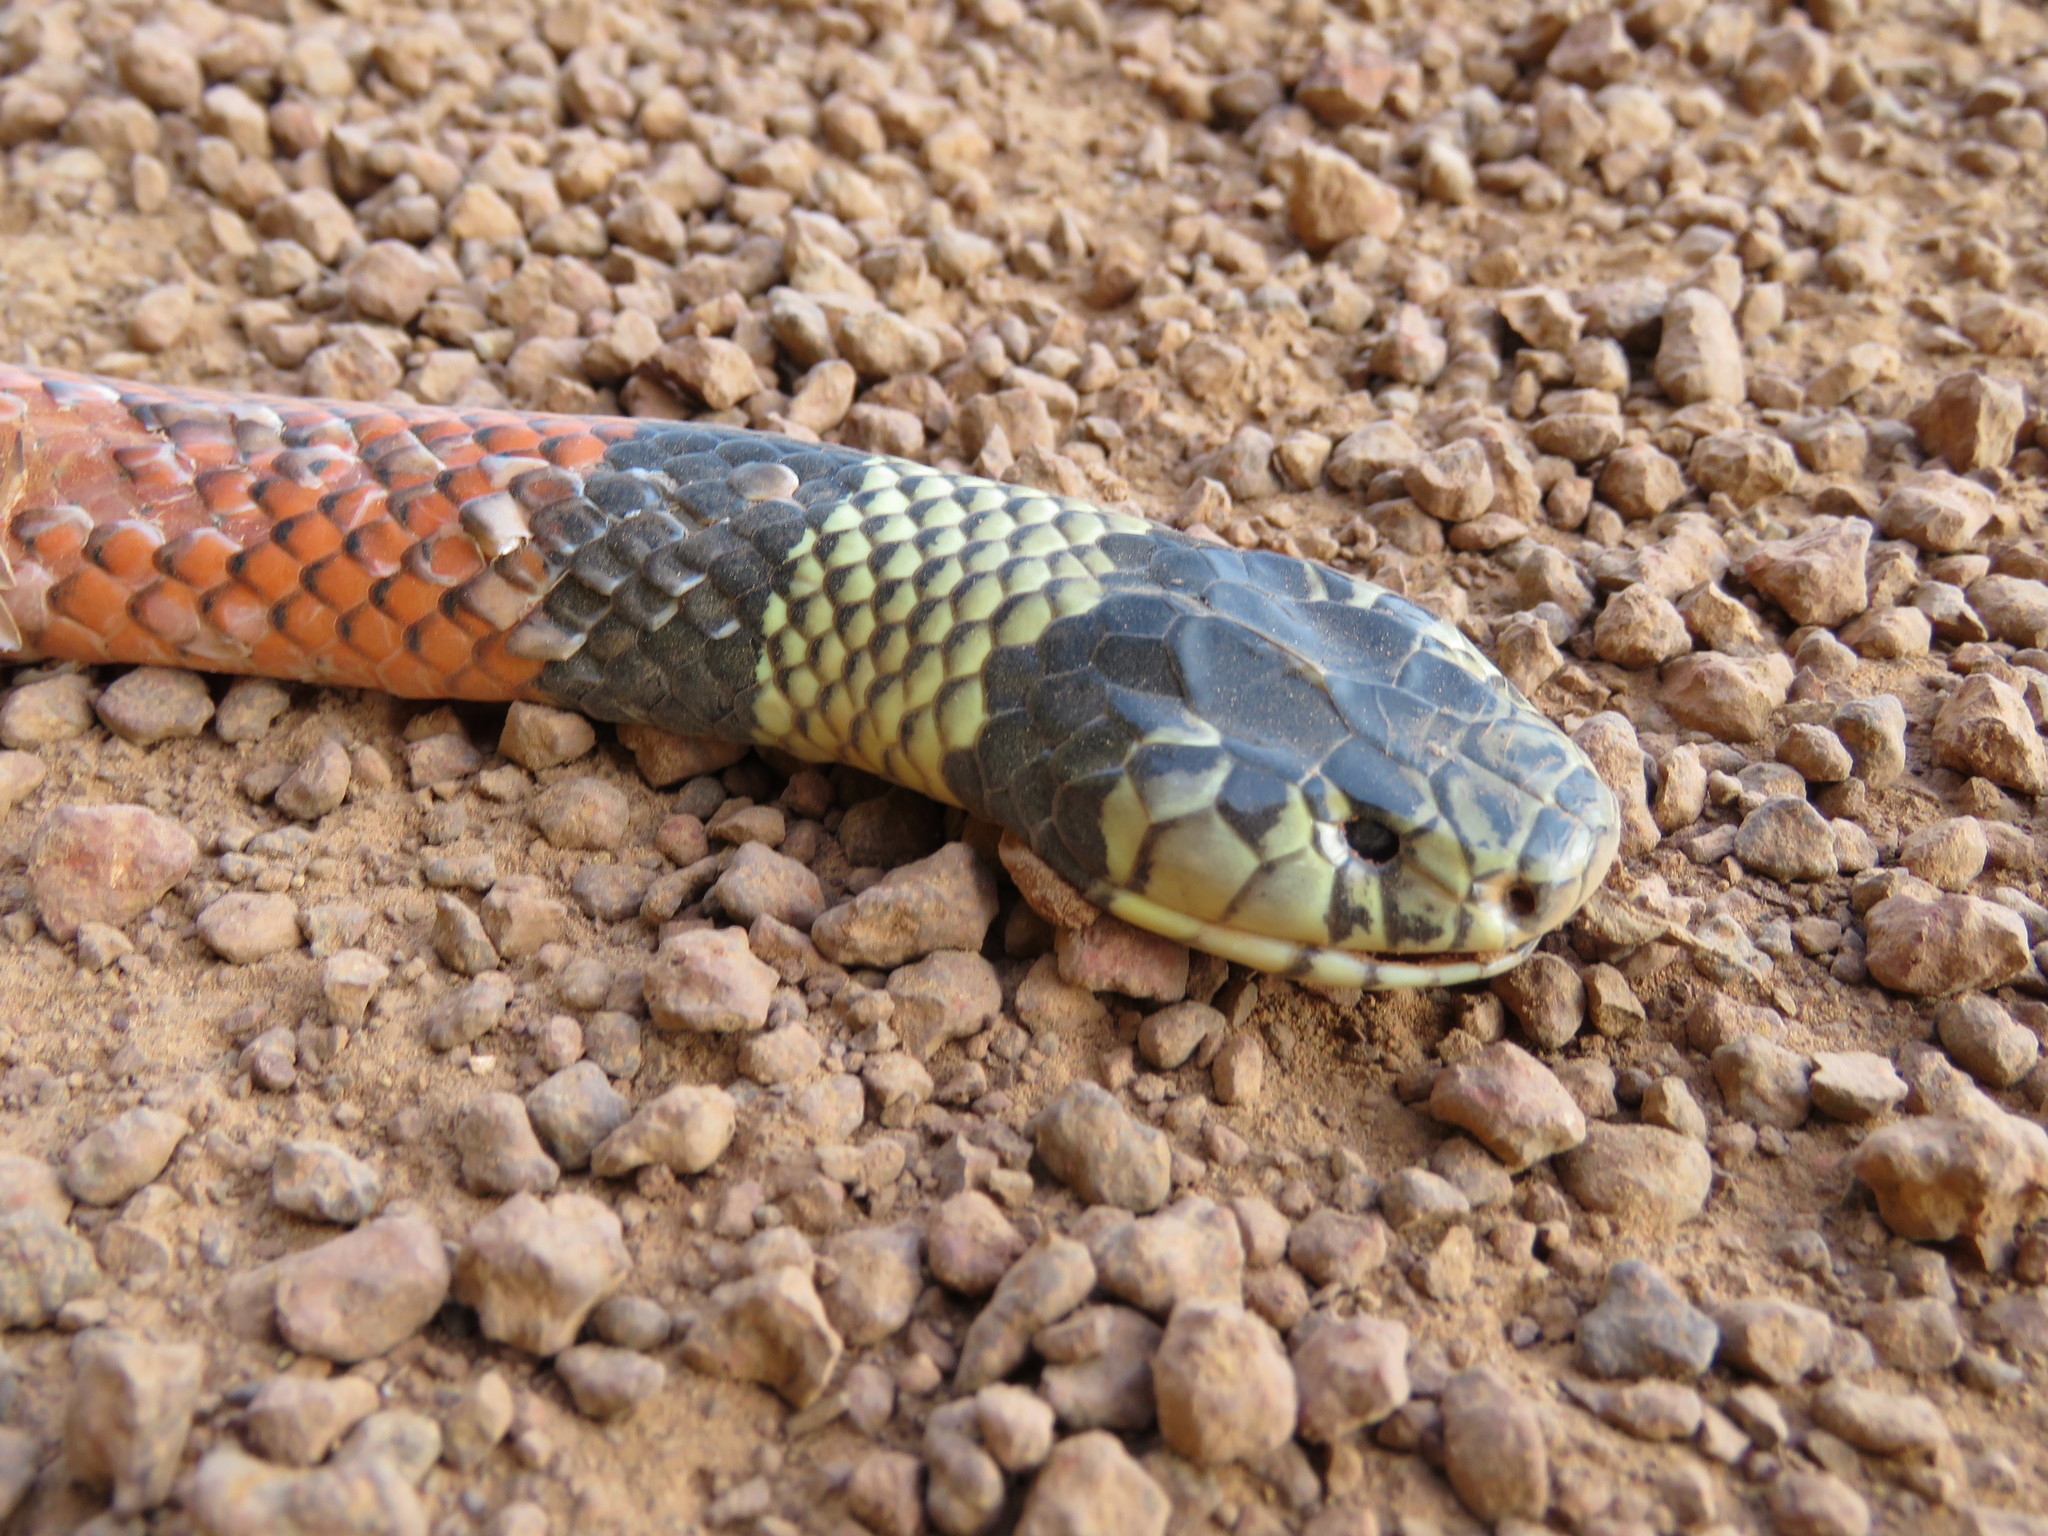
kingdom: Animalia
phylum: Chordata
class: Squamata
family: Elapidae
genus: Micrurus
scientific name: Micrurus spixii
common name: Amazon coral snake
